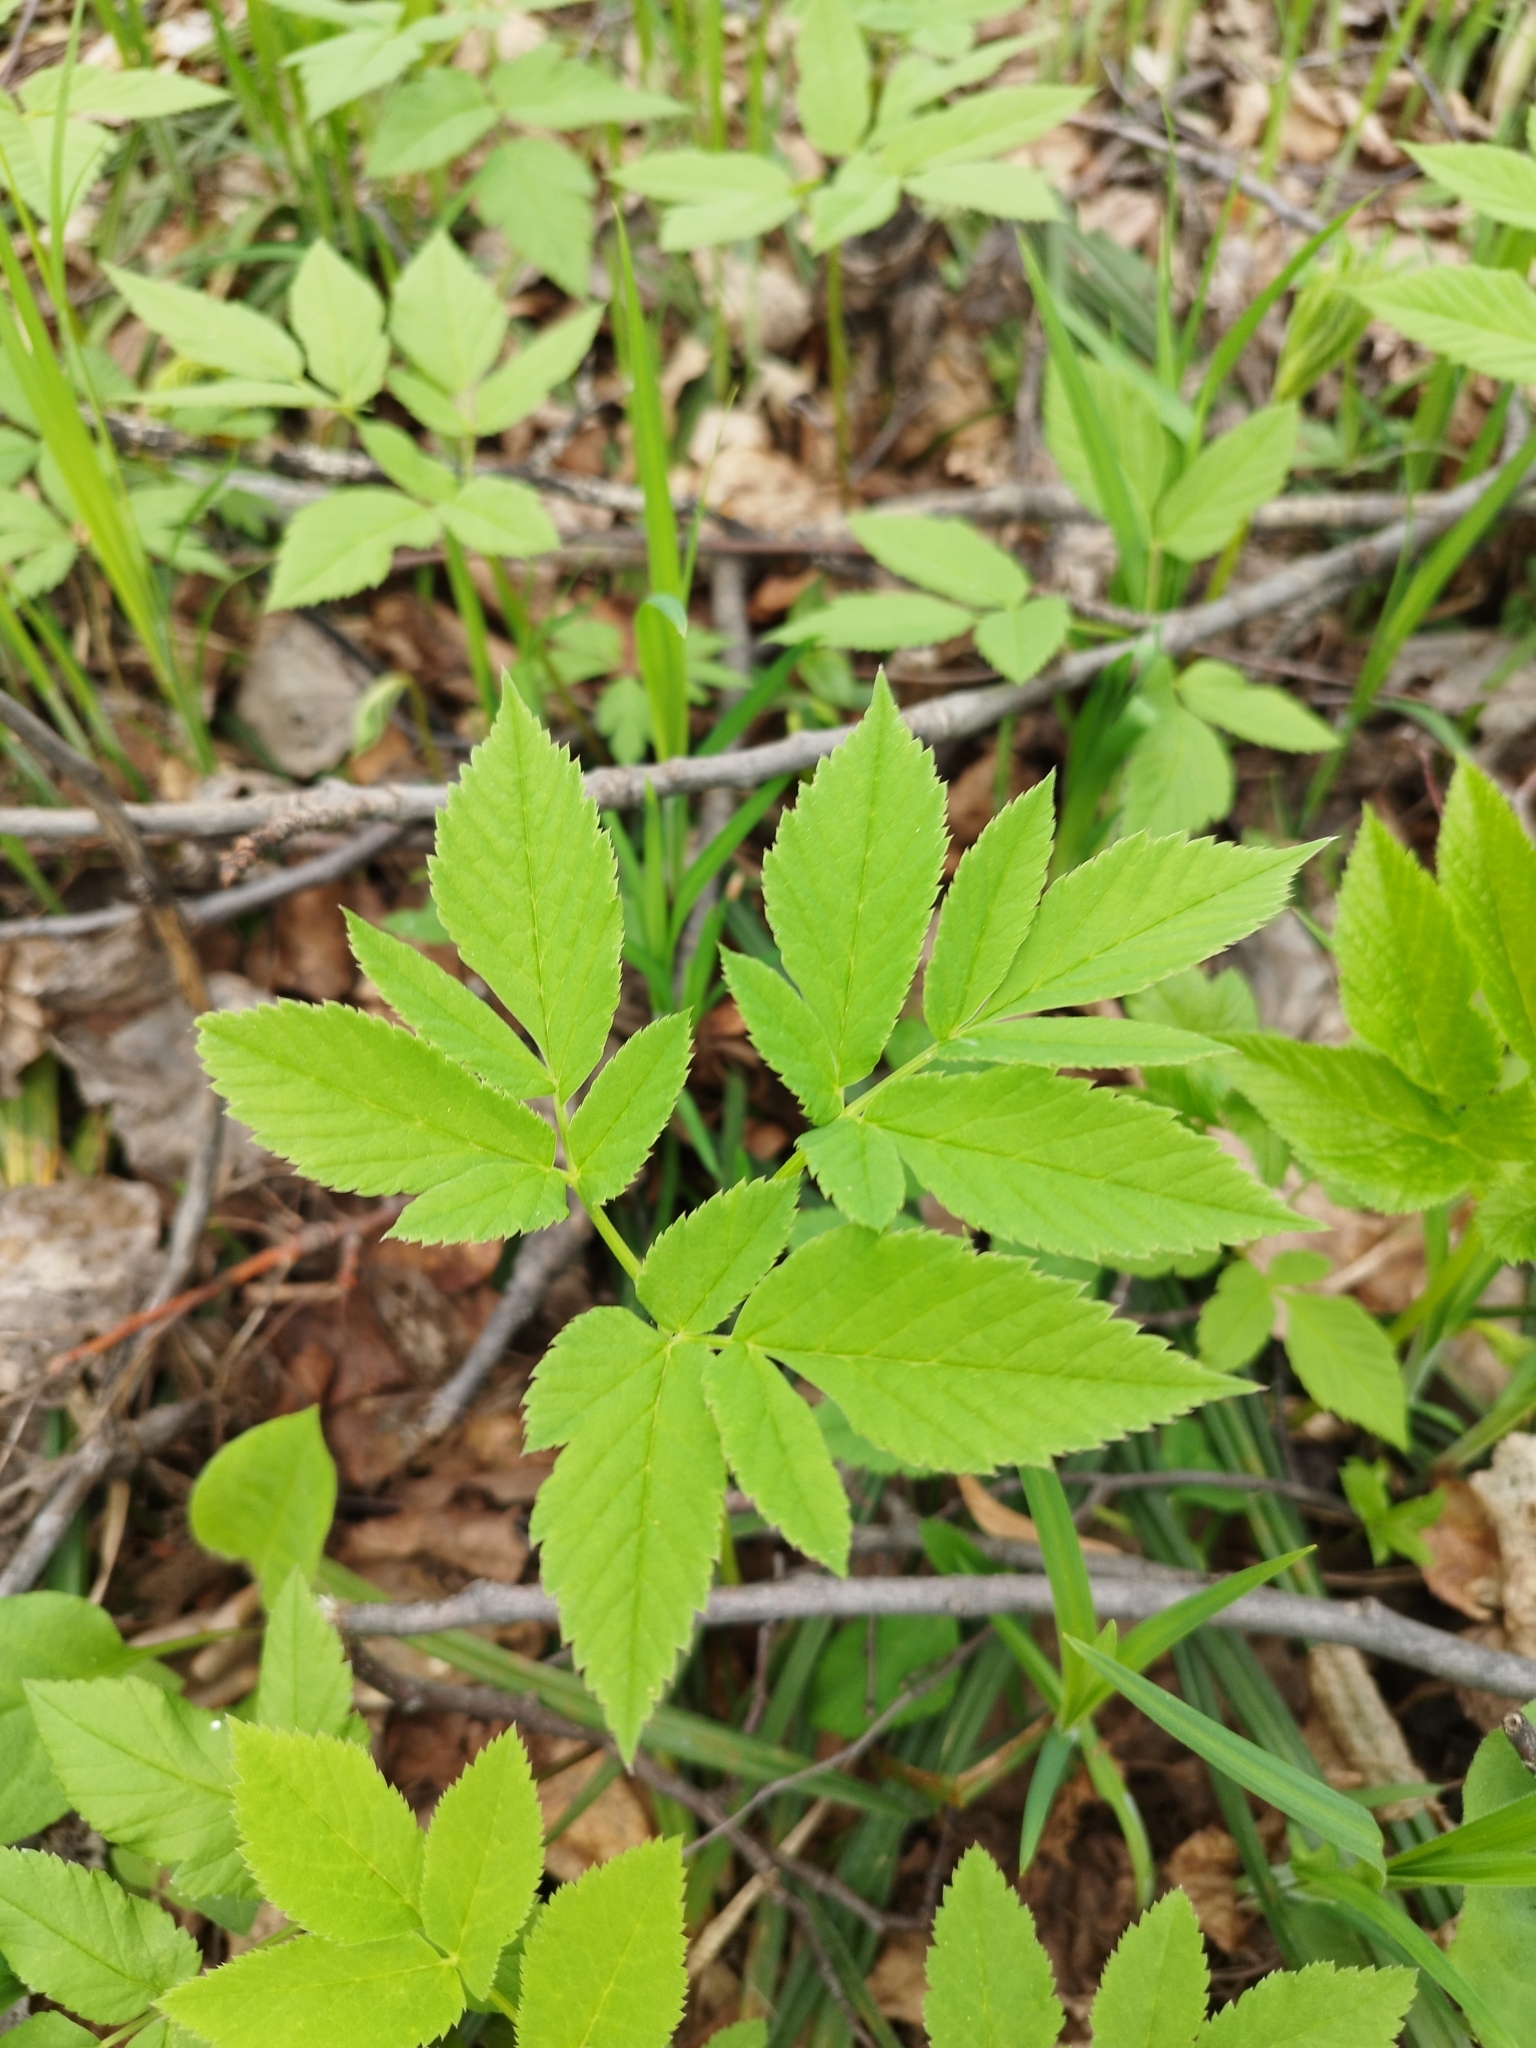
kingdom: Plantae
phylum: Tracheophyta
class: Magnoliopsida
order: Apiales
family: Apiaceae
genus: Aegopodium
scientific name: Aegopodium podagraria
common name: Ground-elder
